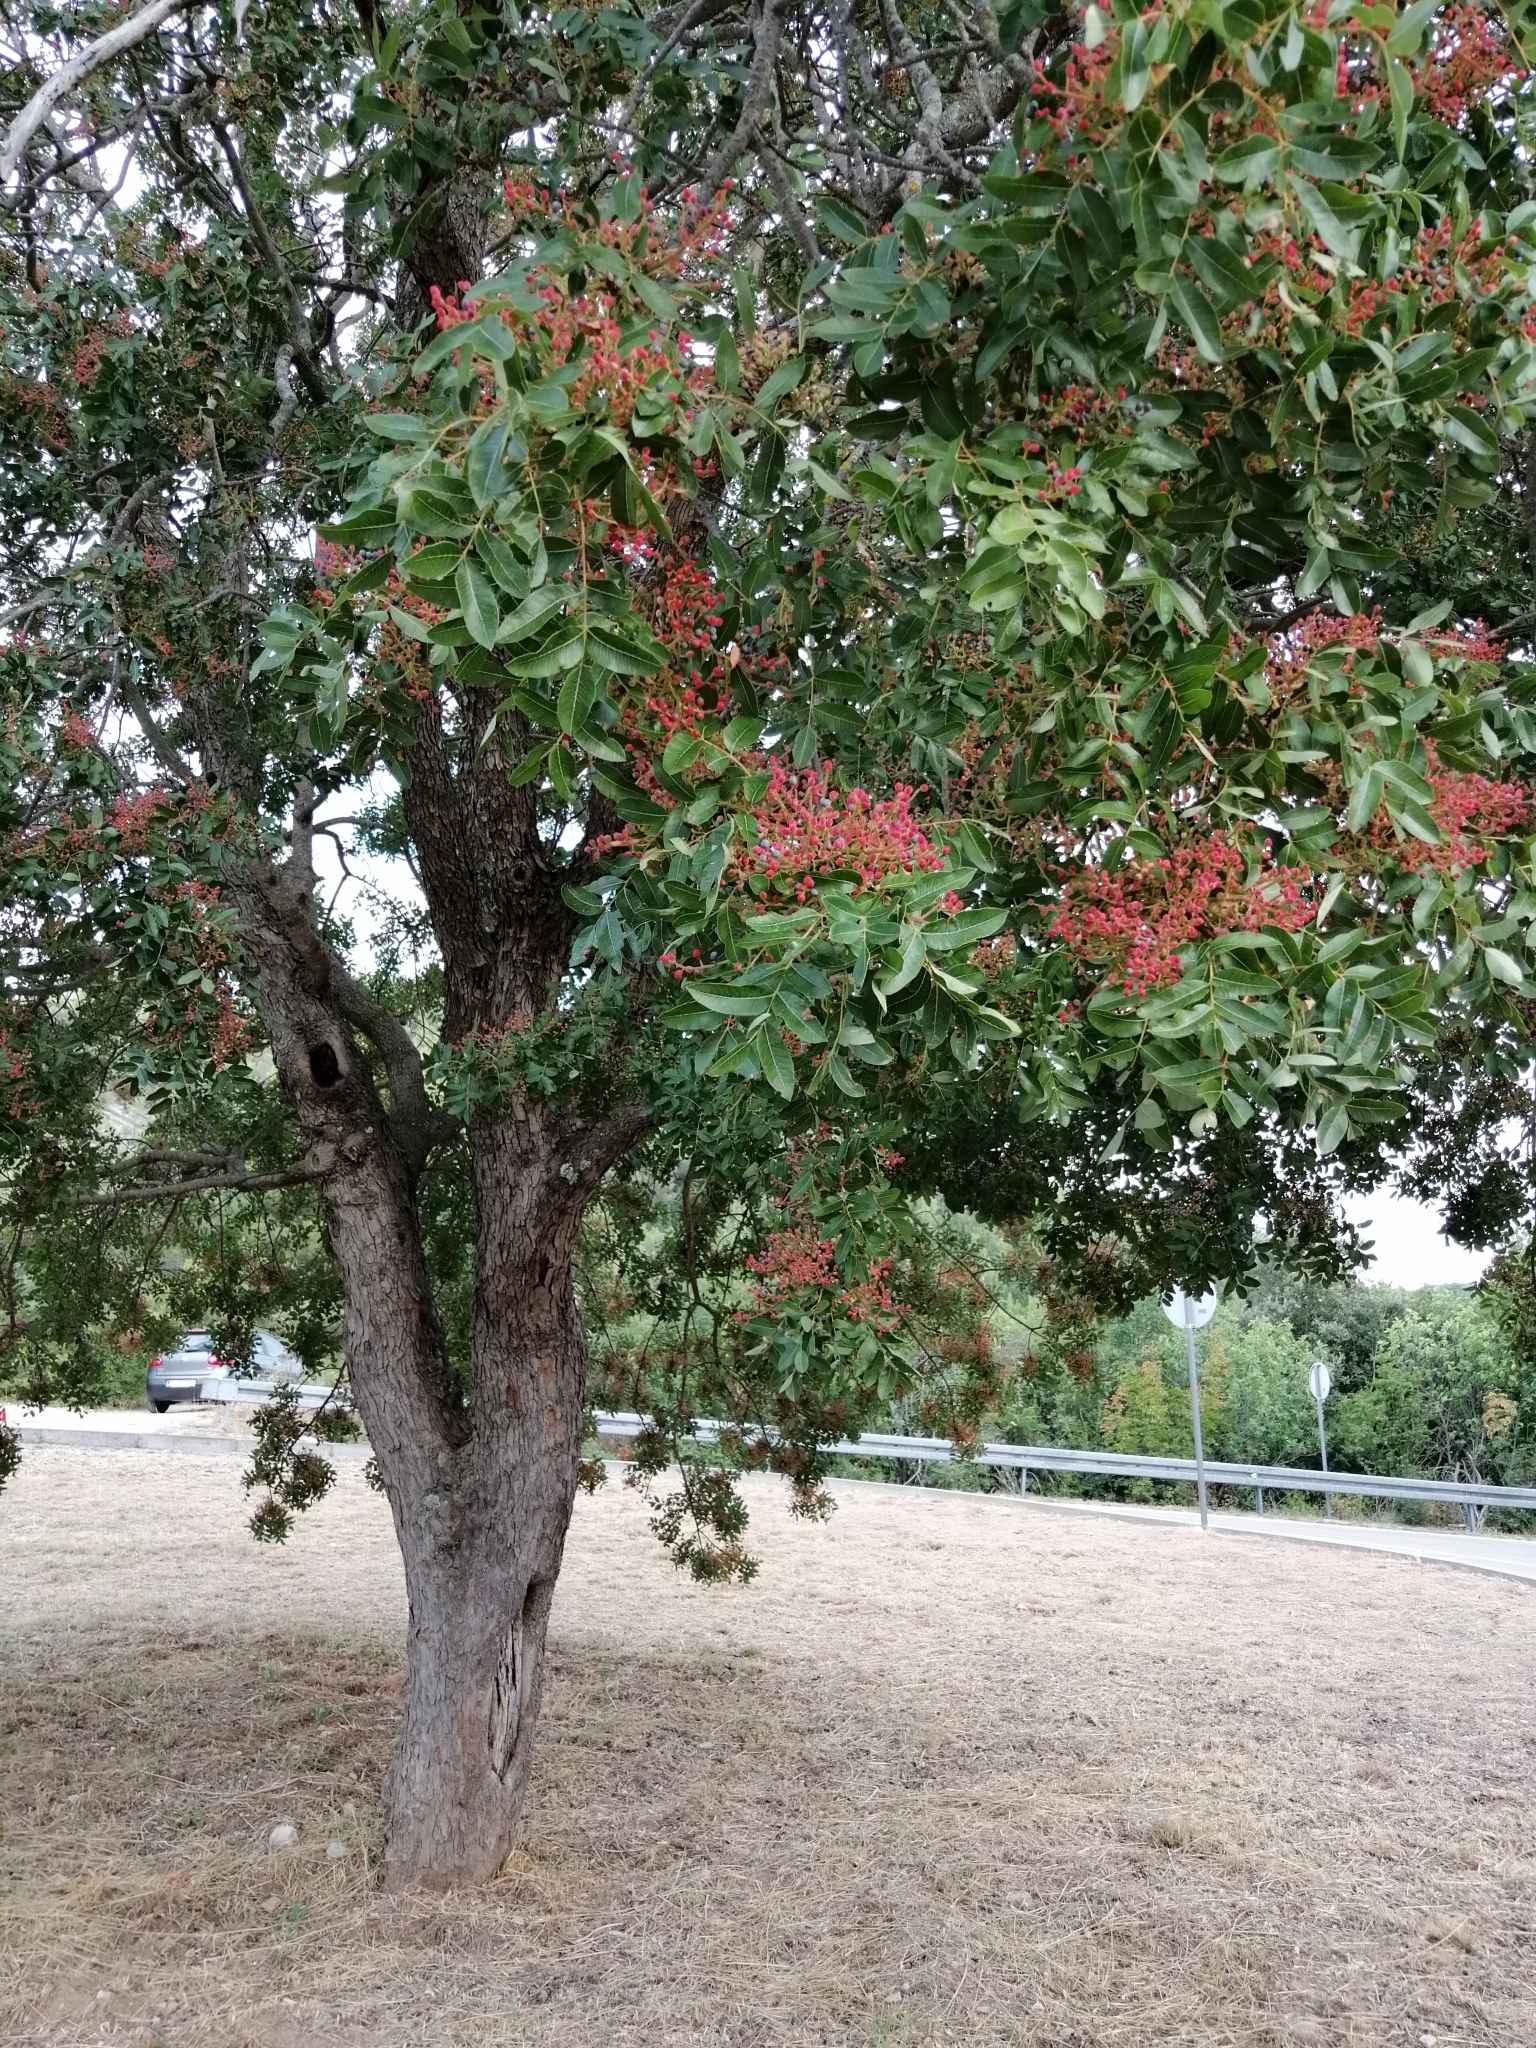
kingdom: Plantae
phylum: Tracheophyta
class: Magnoliopsida
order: Sapindales
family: Anacardiaceae
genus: Pistacia
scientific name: Pistacia terebinthus
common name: Terebinth
